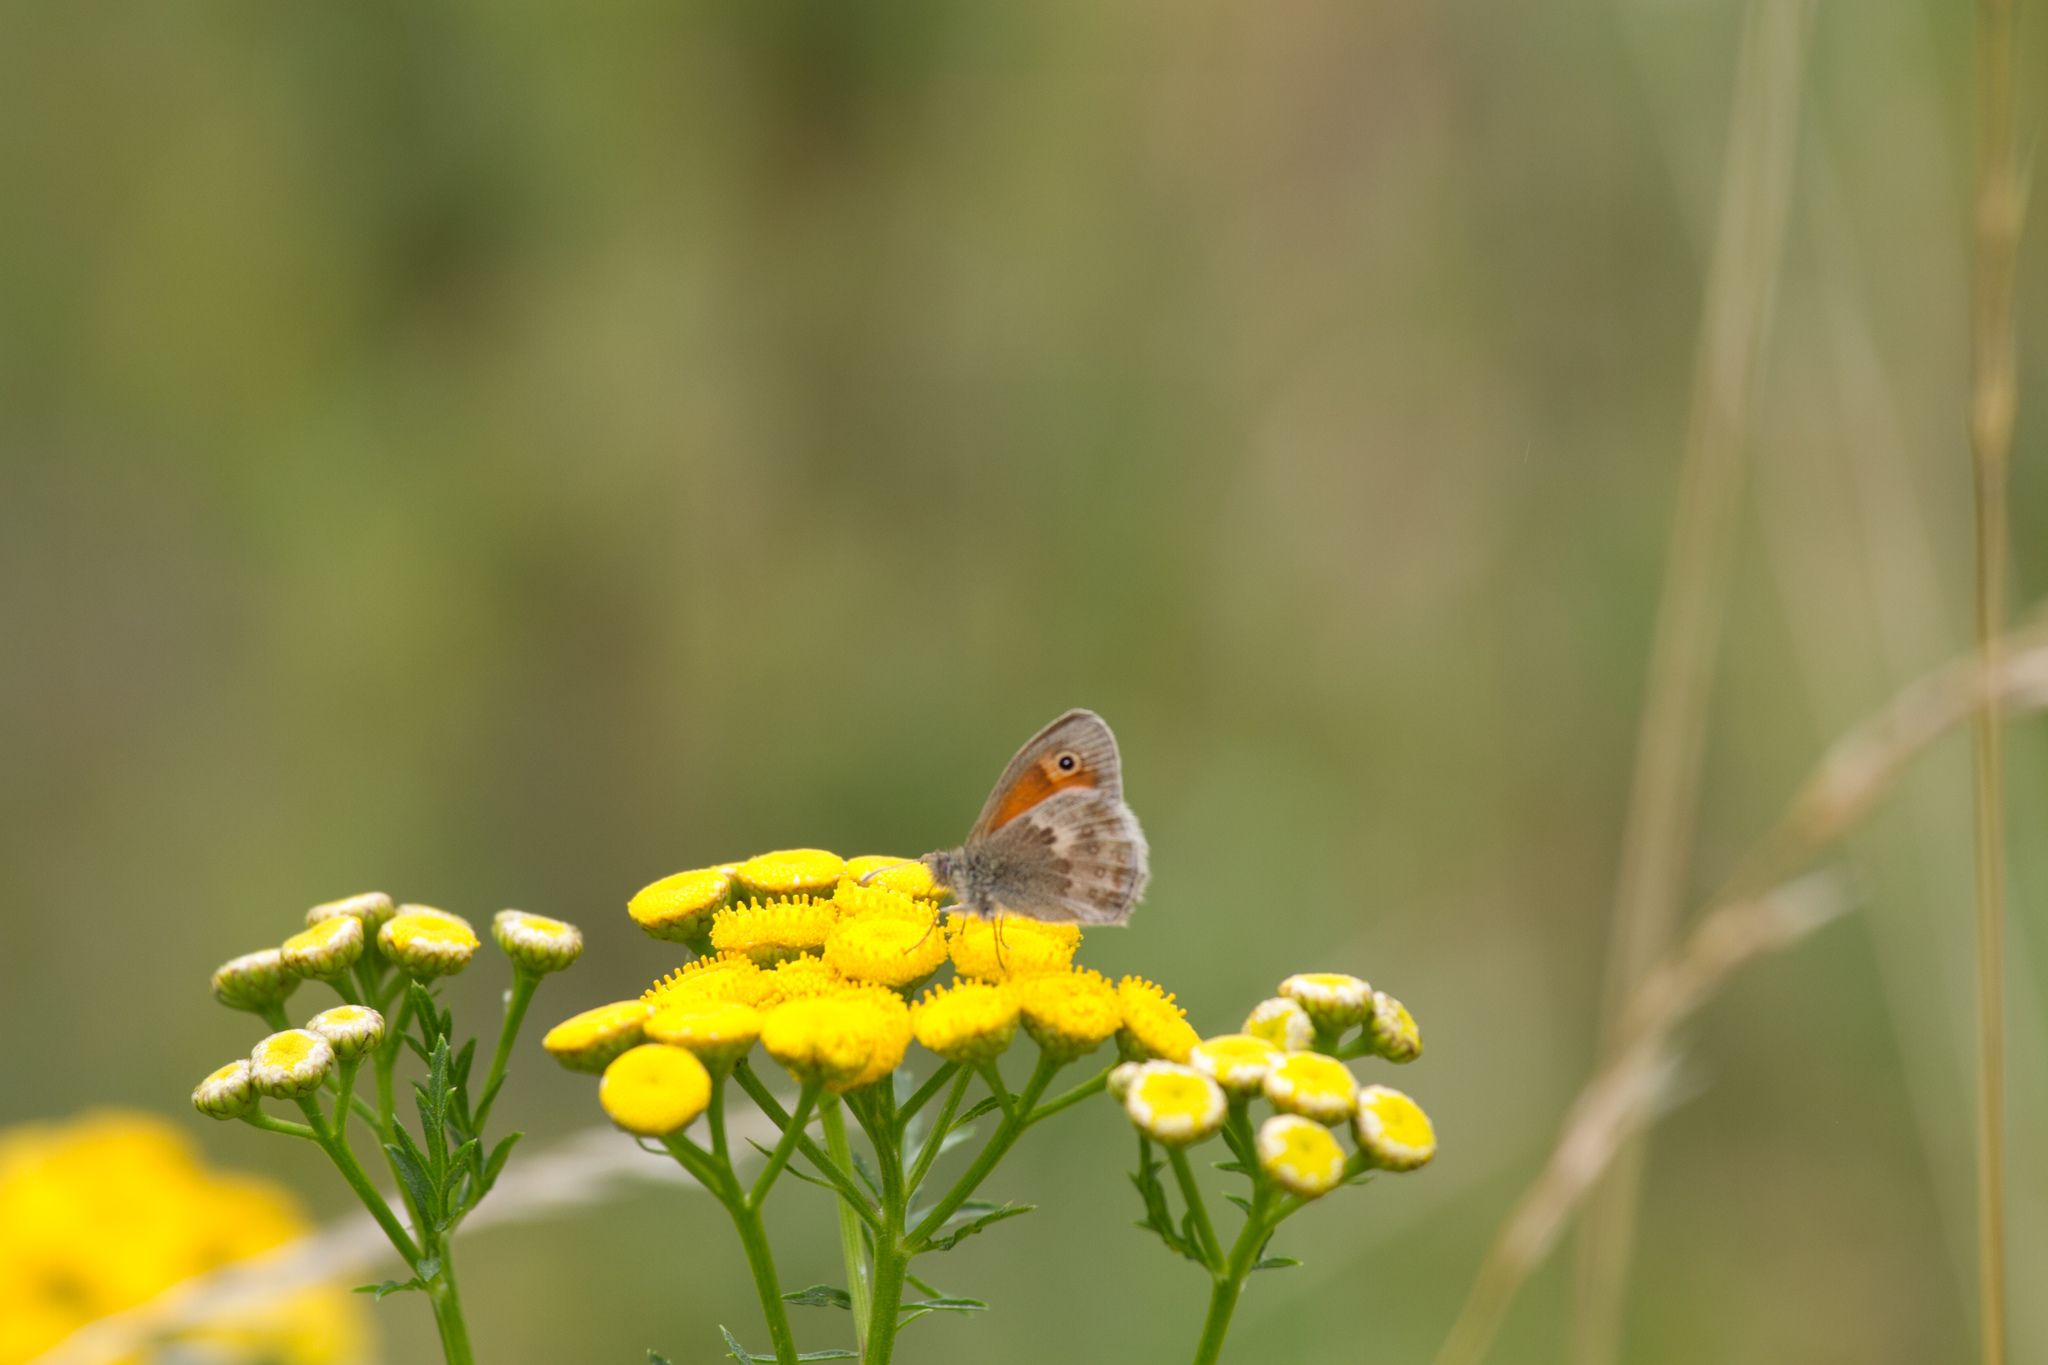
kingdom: Animalia
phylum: Arthropoda
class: Insecta
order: Lepidoptera
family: Nymphalidae
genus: Coenonympha
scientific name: Coenonympha pamphilus
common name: Small heath
